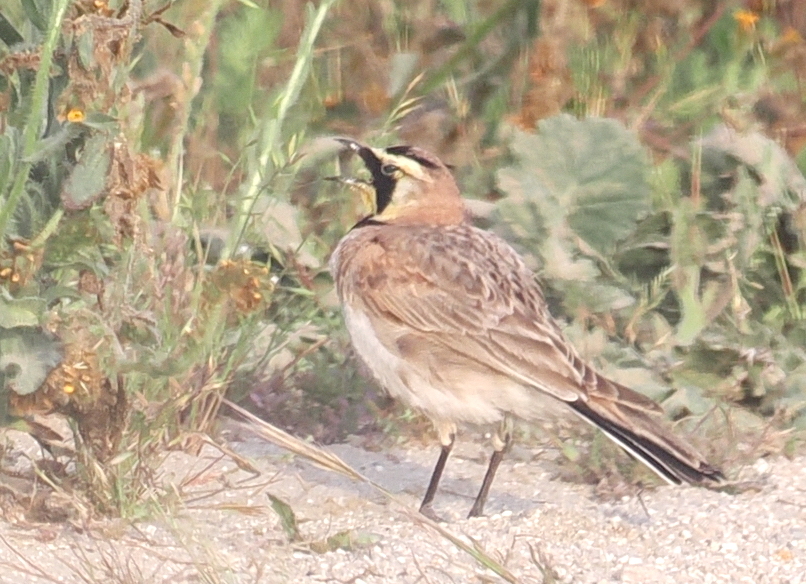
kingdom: Animalia
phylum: Chordata
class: Aves
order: Passeriformes
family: Alaudidae
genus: Eremophila
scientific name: Eremophila alpestris
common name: Horned lark
